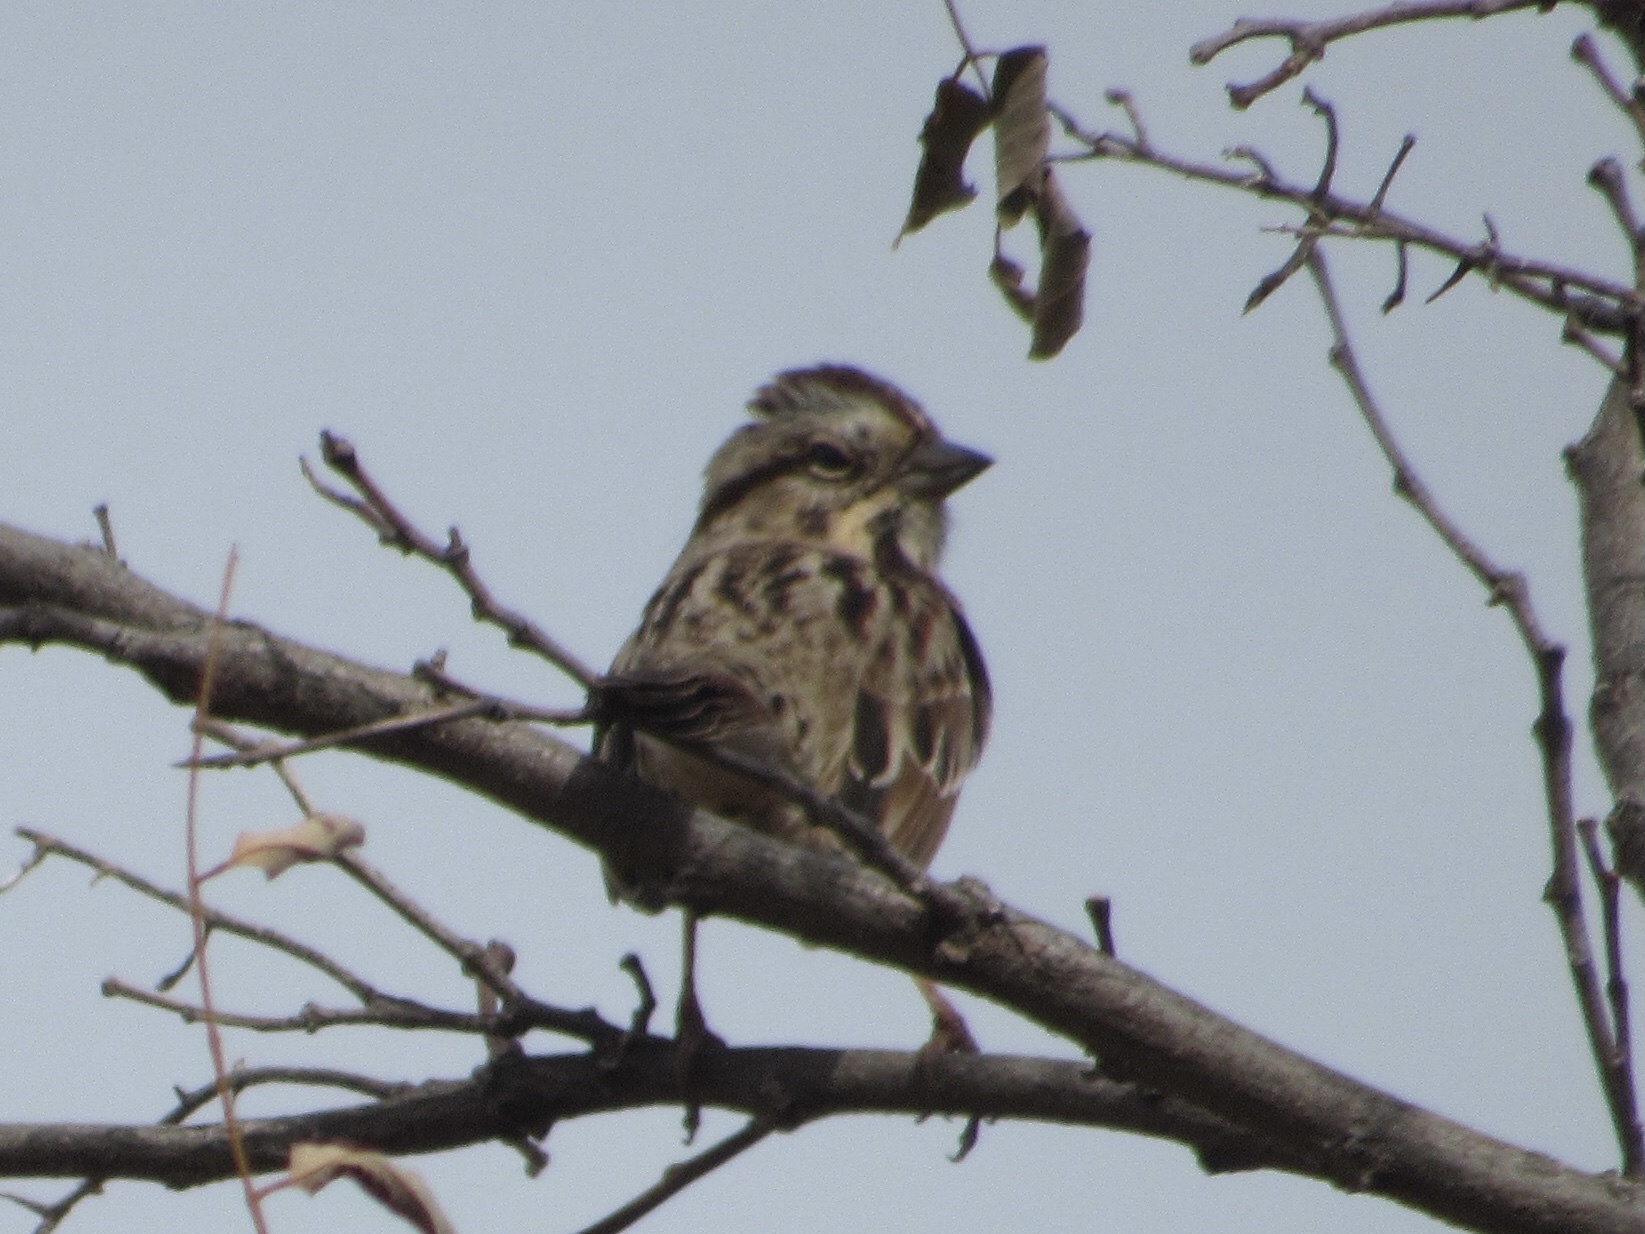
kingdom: Animalia
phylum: Chordata
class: Aves
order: Passeriformes
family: Passerellidae
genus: Melospiza
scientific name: Melospiza melodia
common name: Song sparrow
